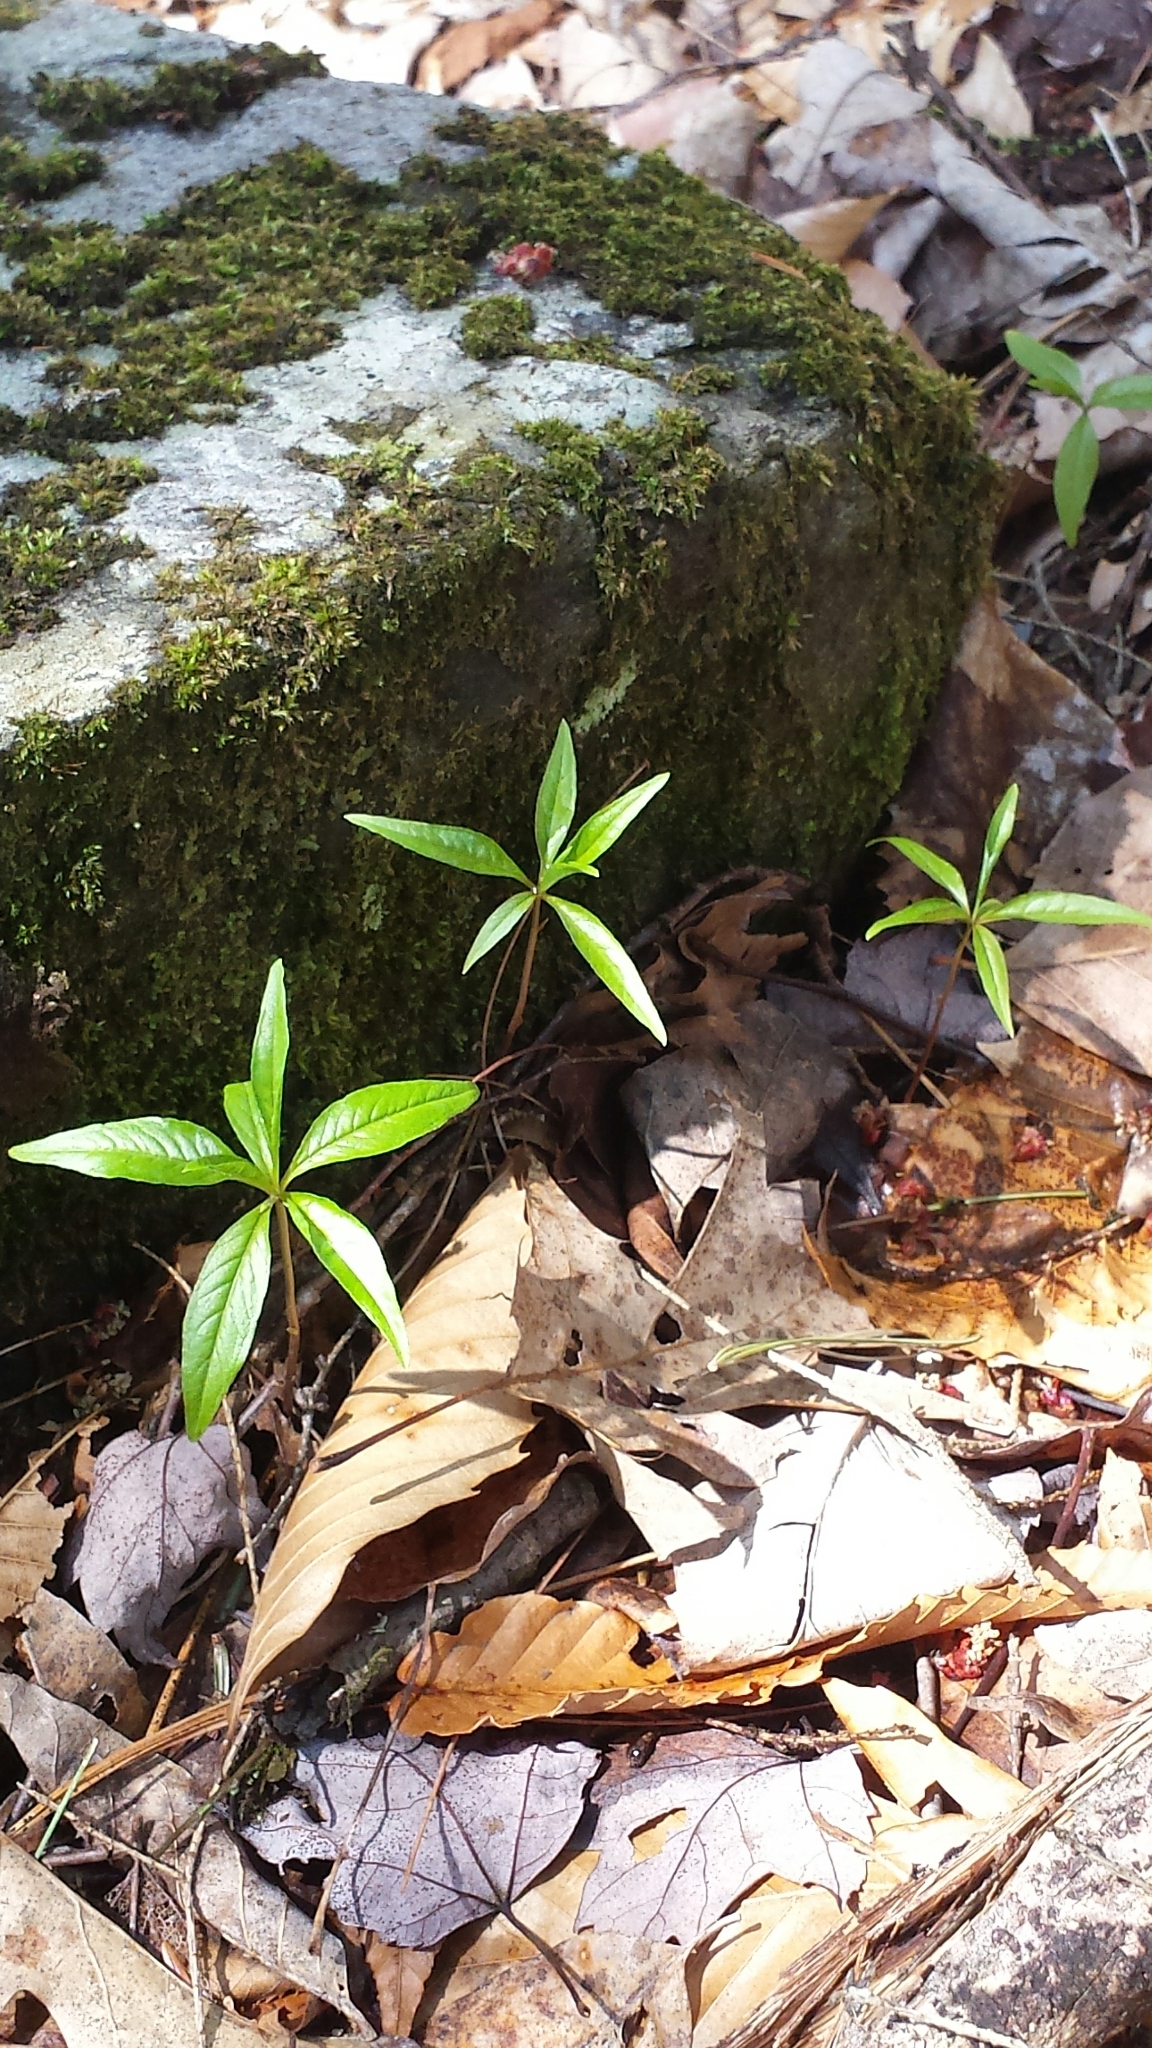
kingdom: Plantae
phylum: Tracheophyta
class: Magnoliopsida
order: Ericales
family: Primulaceae
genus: Lysimachia
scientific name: Lysimachia borealis
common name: American starflower
